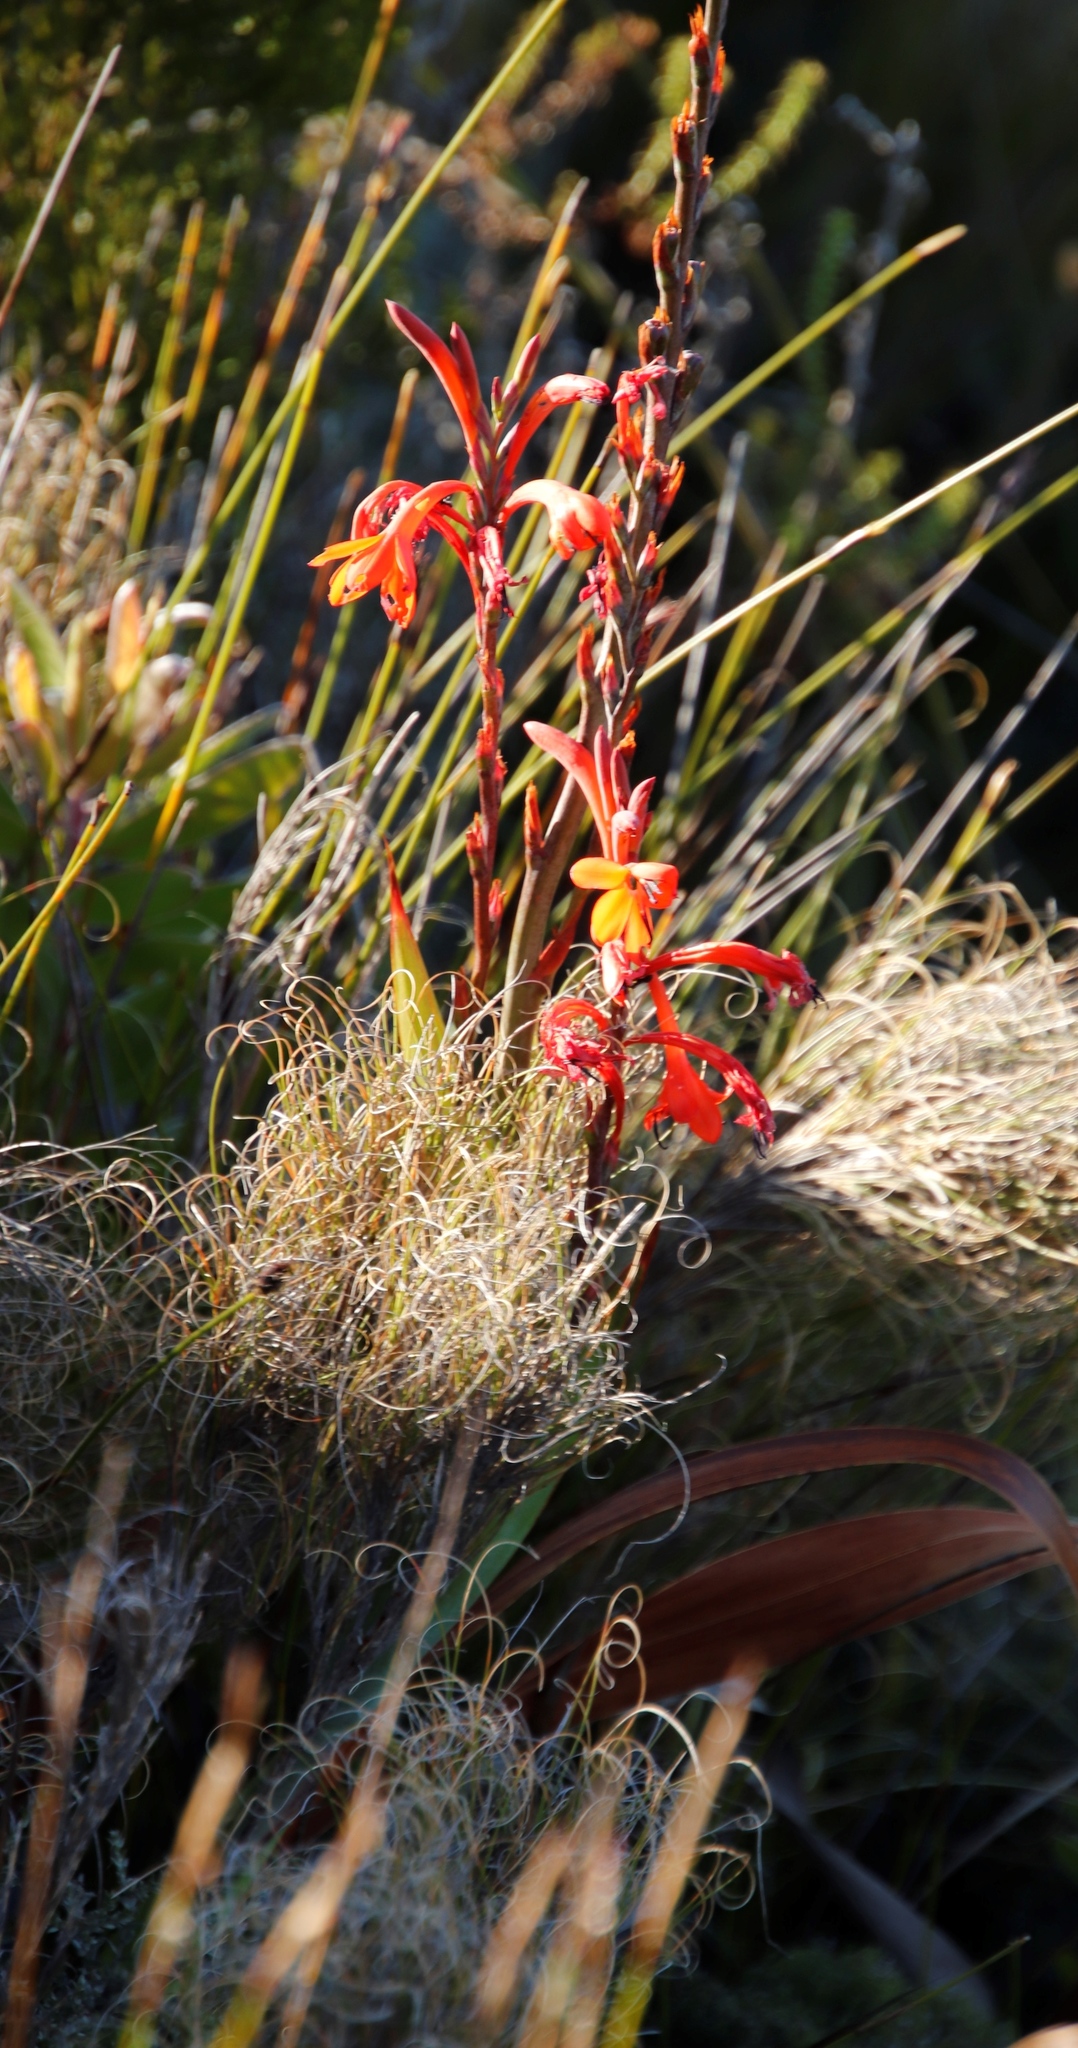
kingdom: Plantae
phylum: Tracheophyta
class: Liliopsida
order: Asparagales
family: Iridaceae
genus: Watsonia
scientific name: Watsonia tabularis
